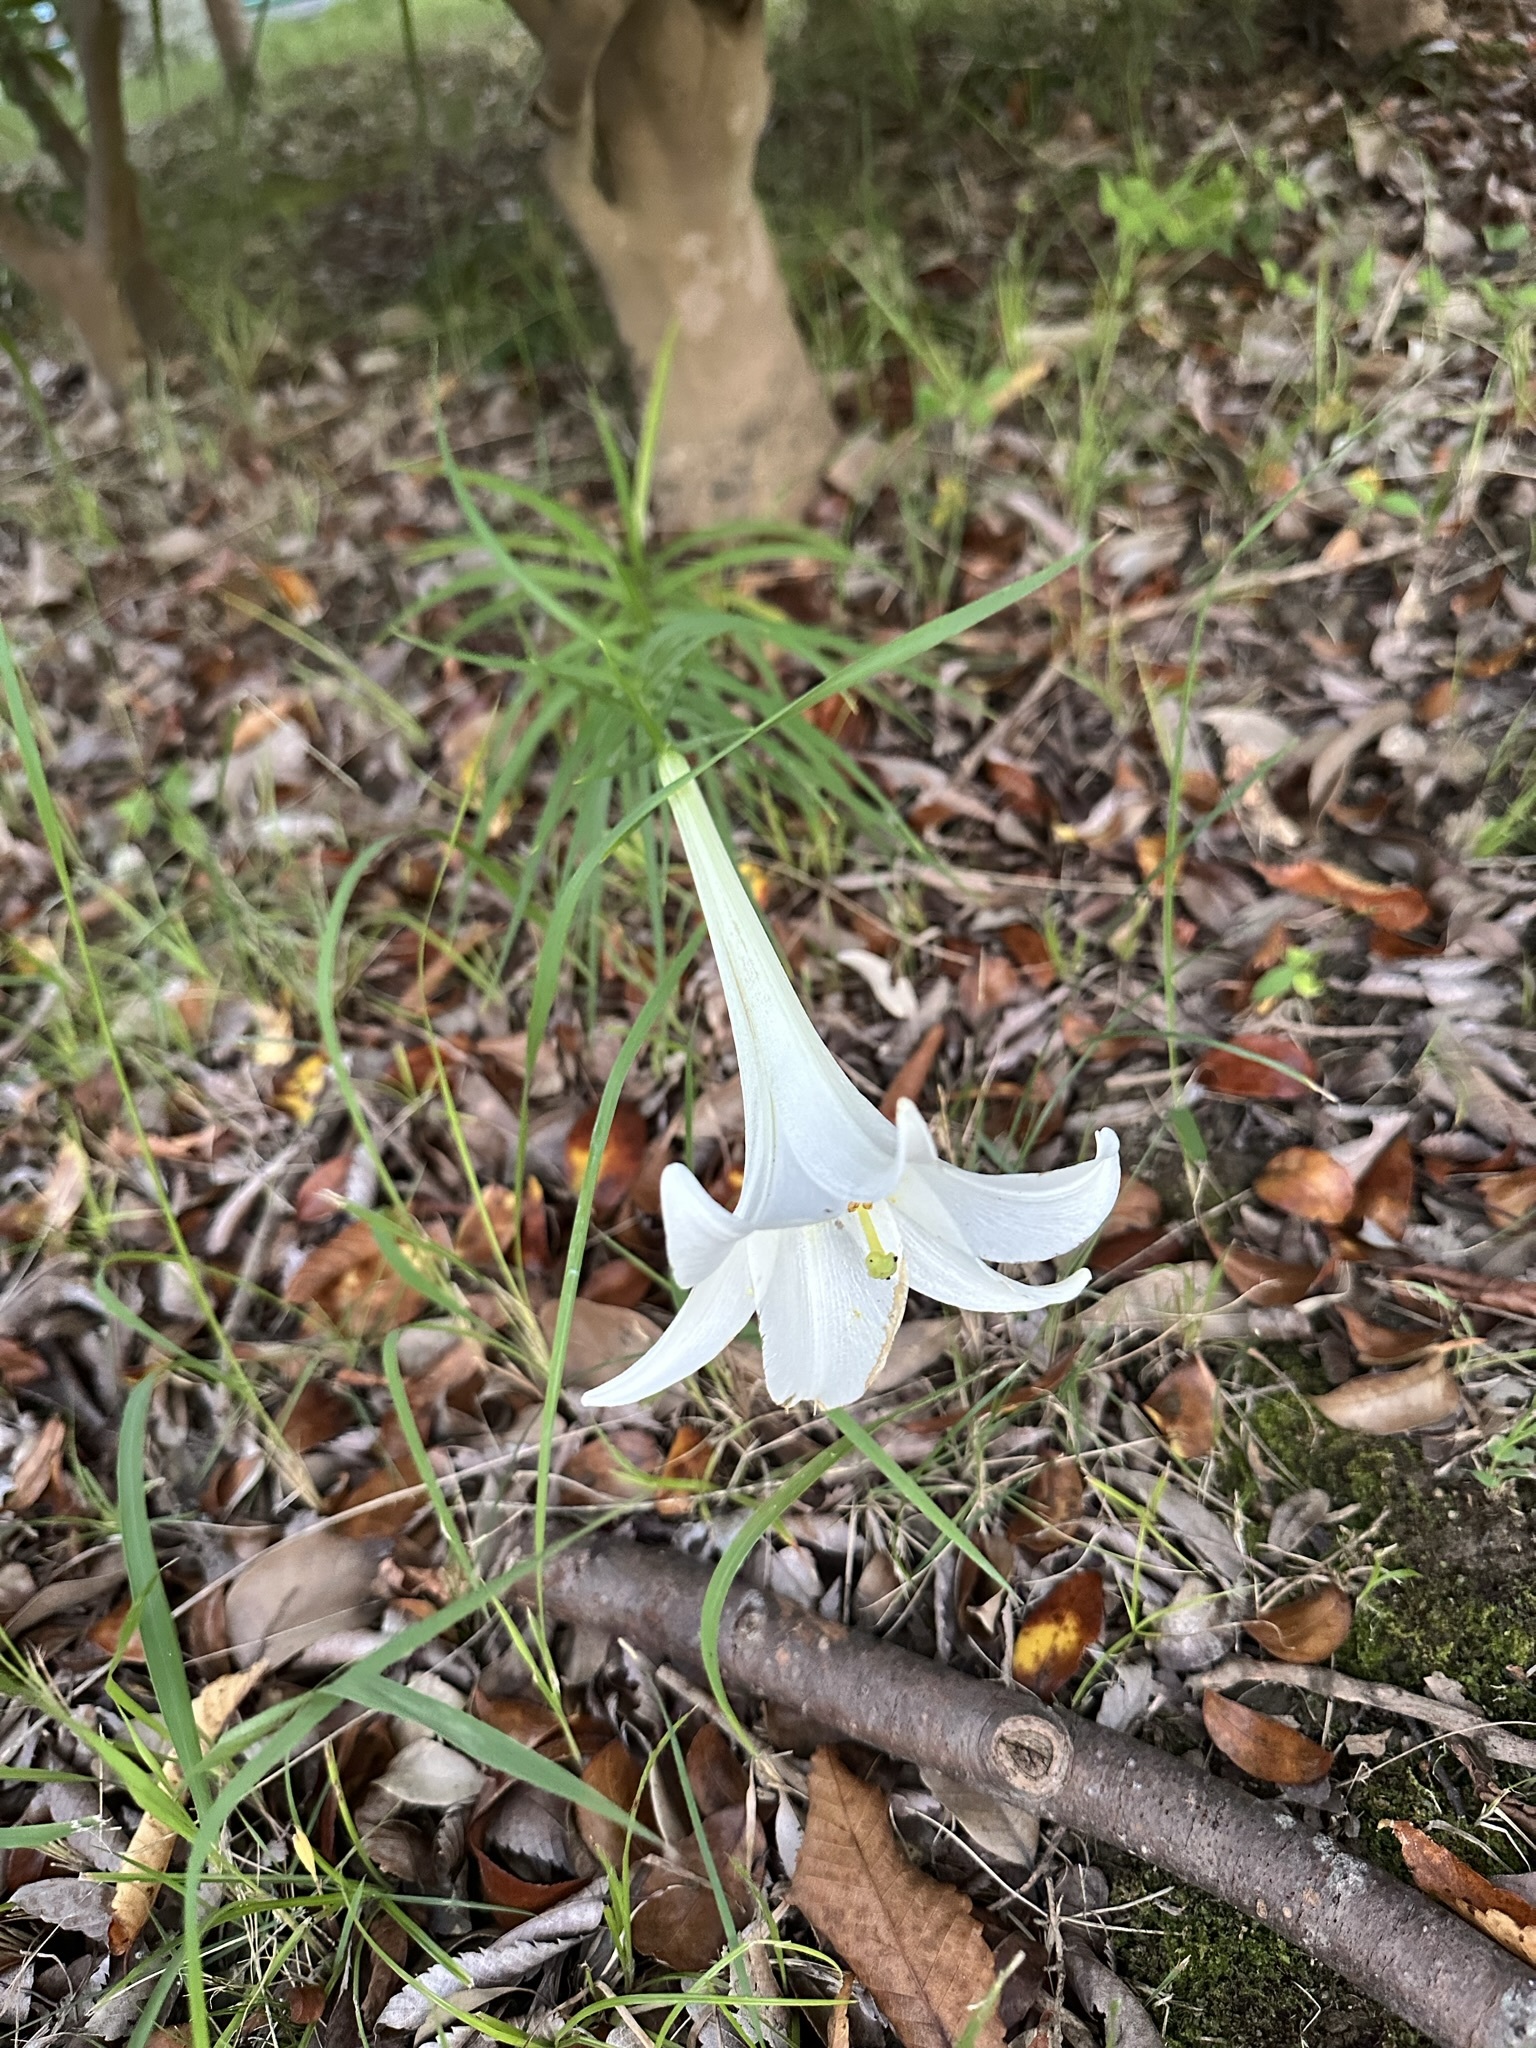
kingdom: Plantae
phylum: Tracheophyta
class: Liliopsida
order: Liliales
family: Liliaceae
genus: Lilium
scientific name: Lilium formosanum
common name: Formosa lily
